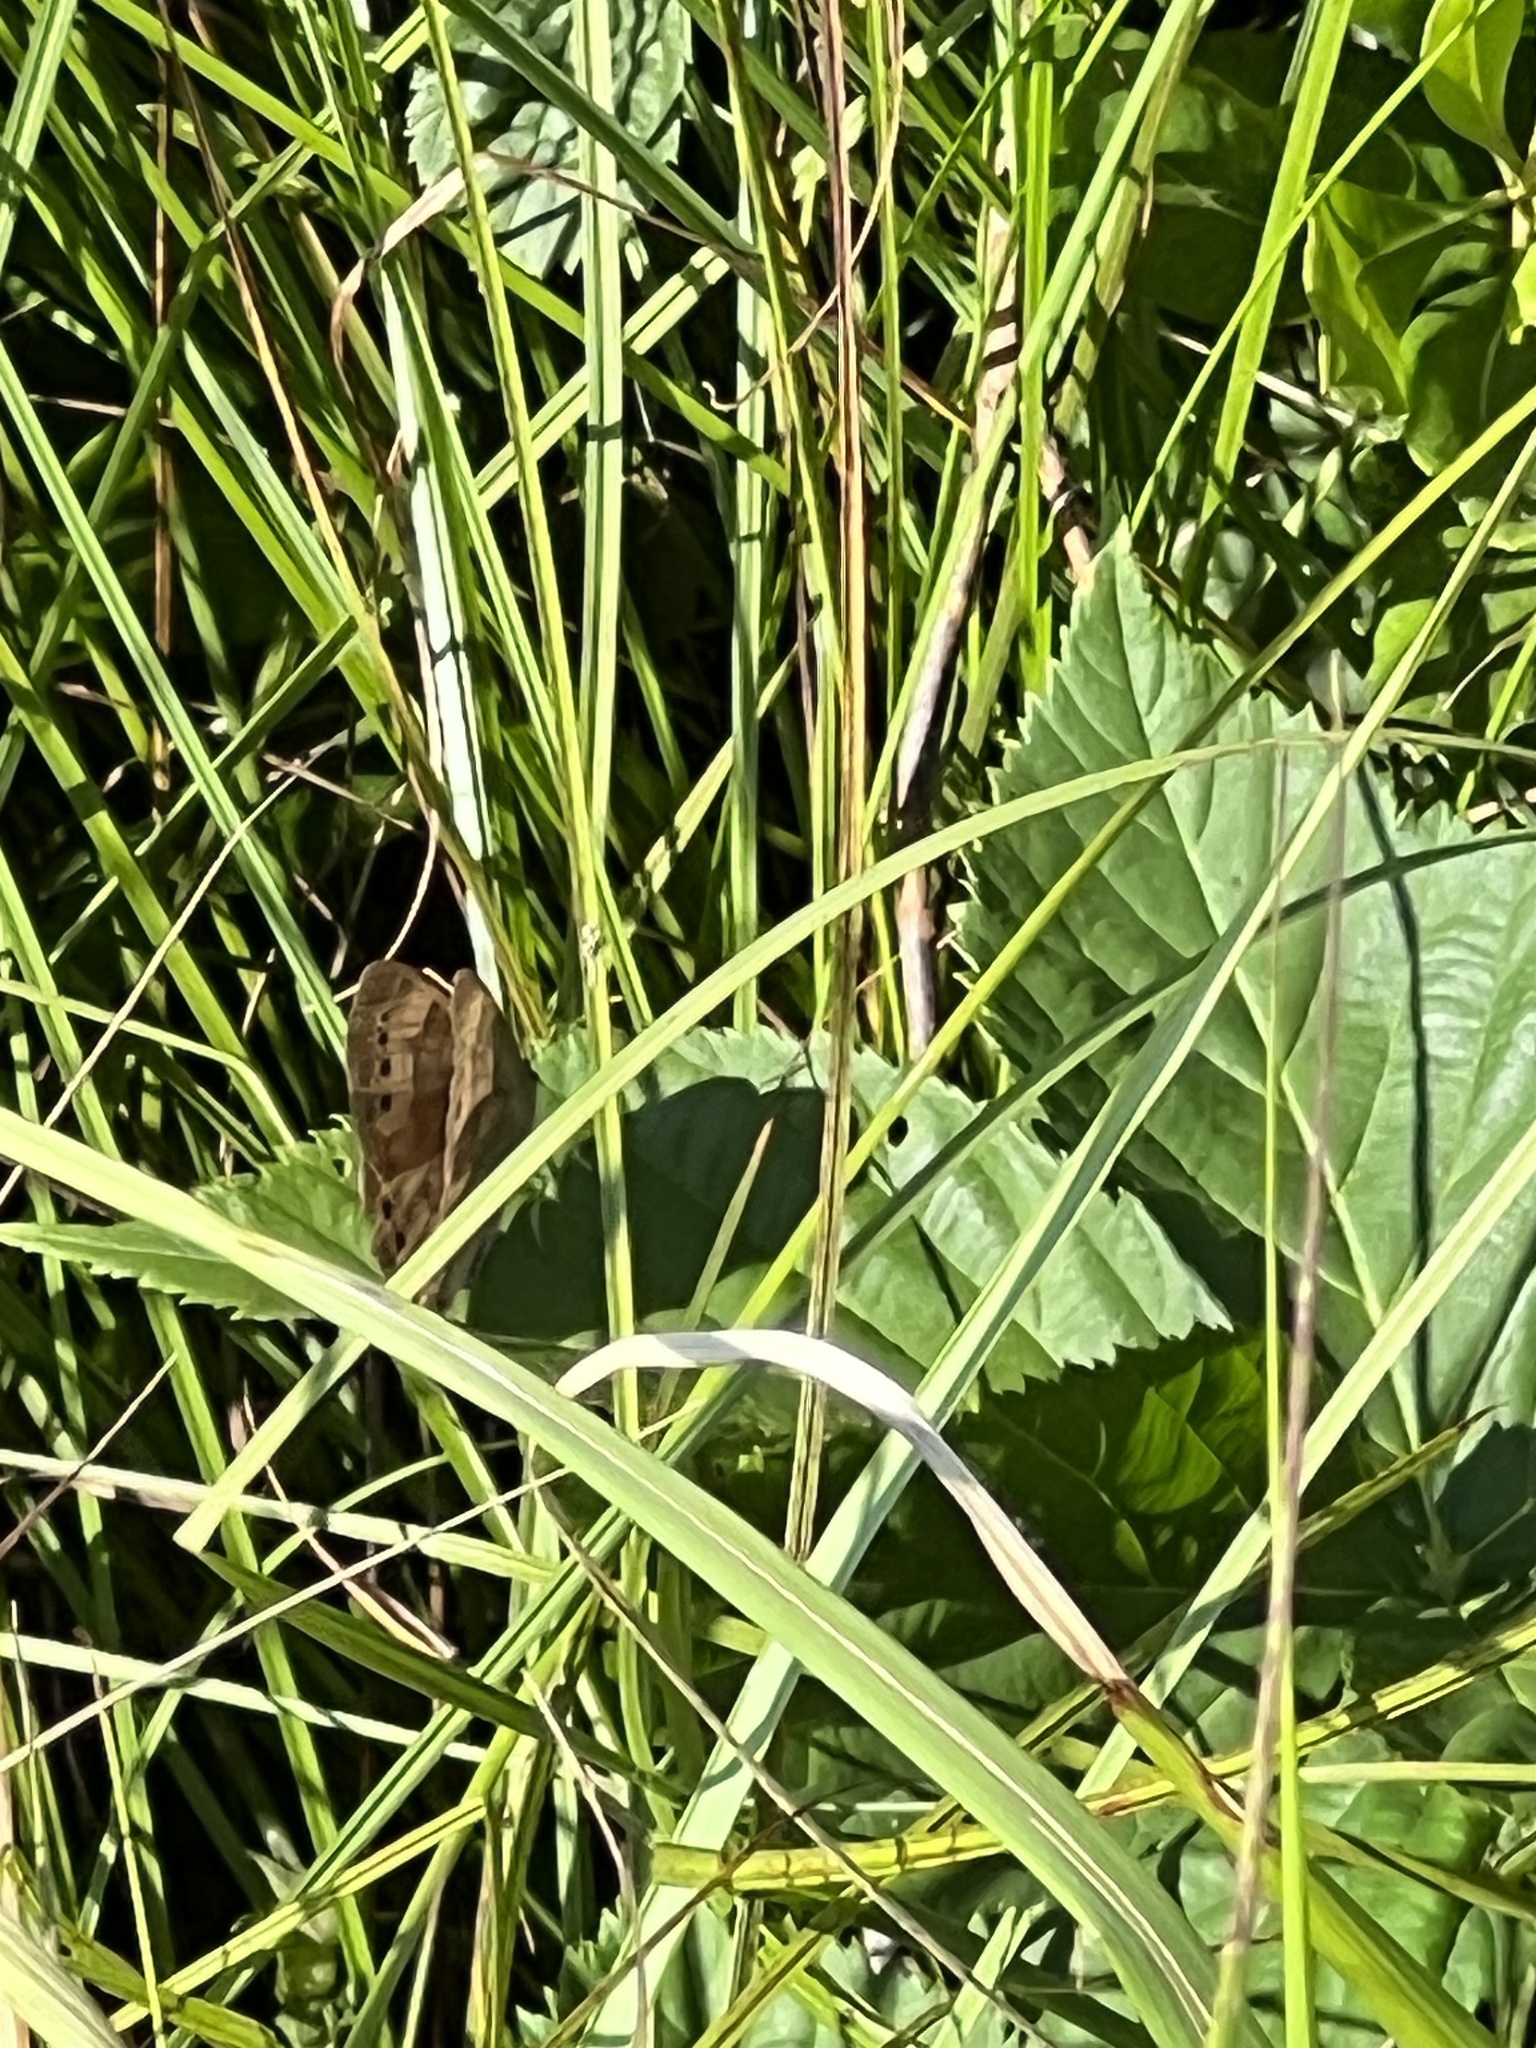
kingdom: Animalia
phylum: Arthropoda
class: Insecta
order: Lepidoptera
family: Nymphalidae
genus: Lethe
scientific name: Lethe eurydice
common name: Eyed brown
